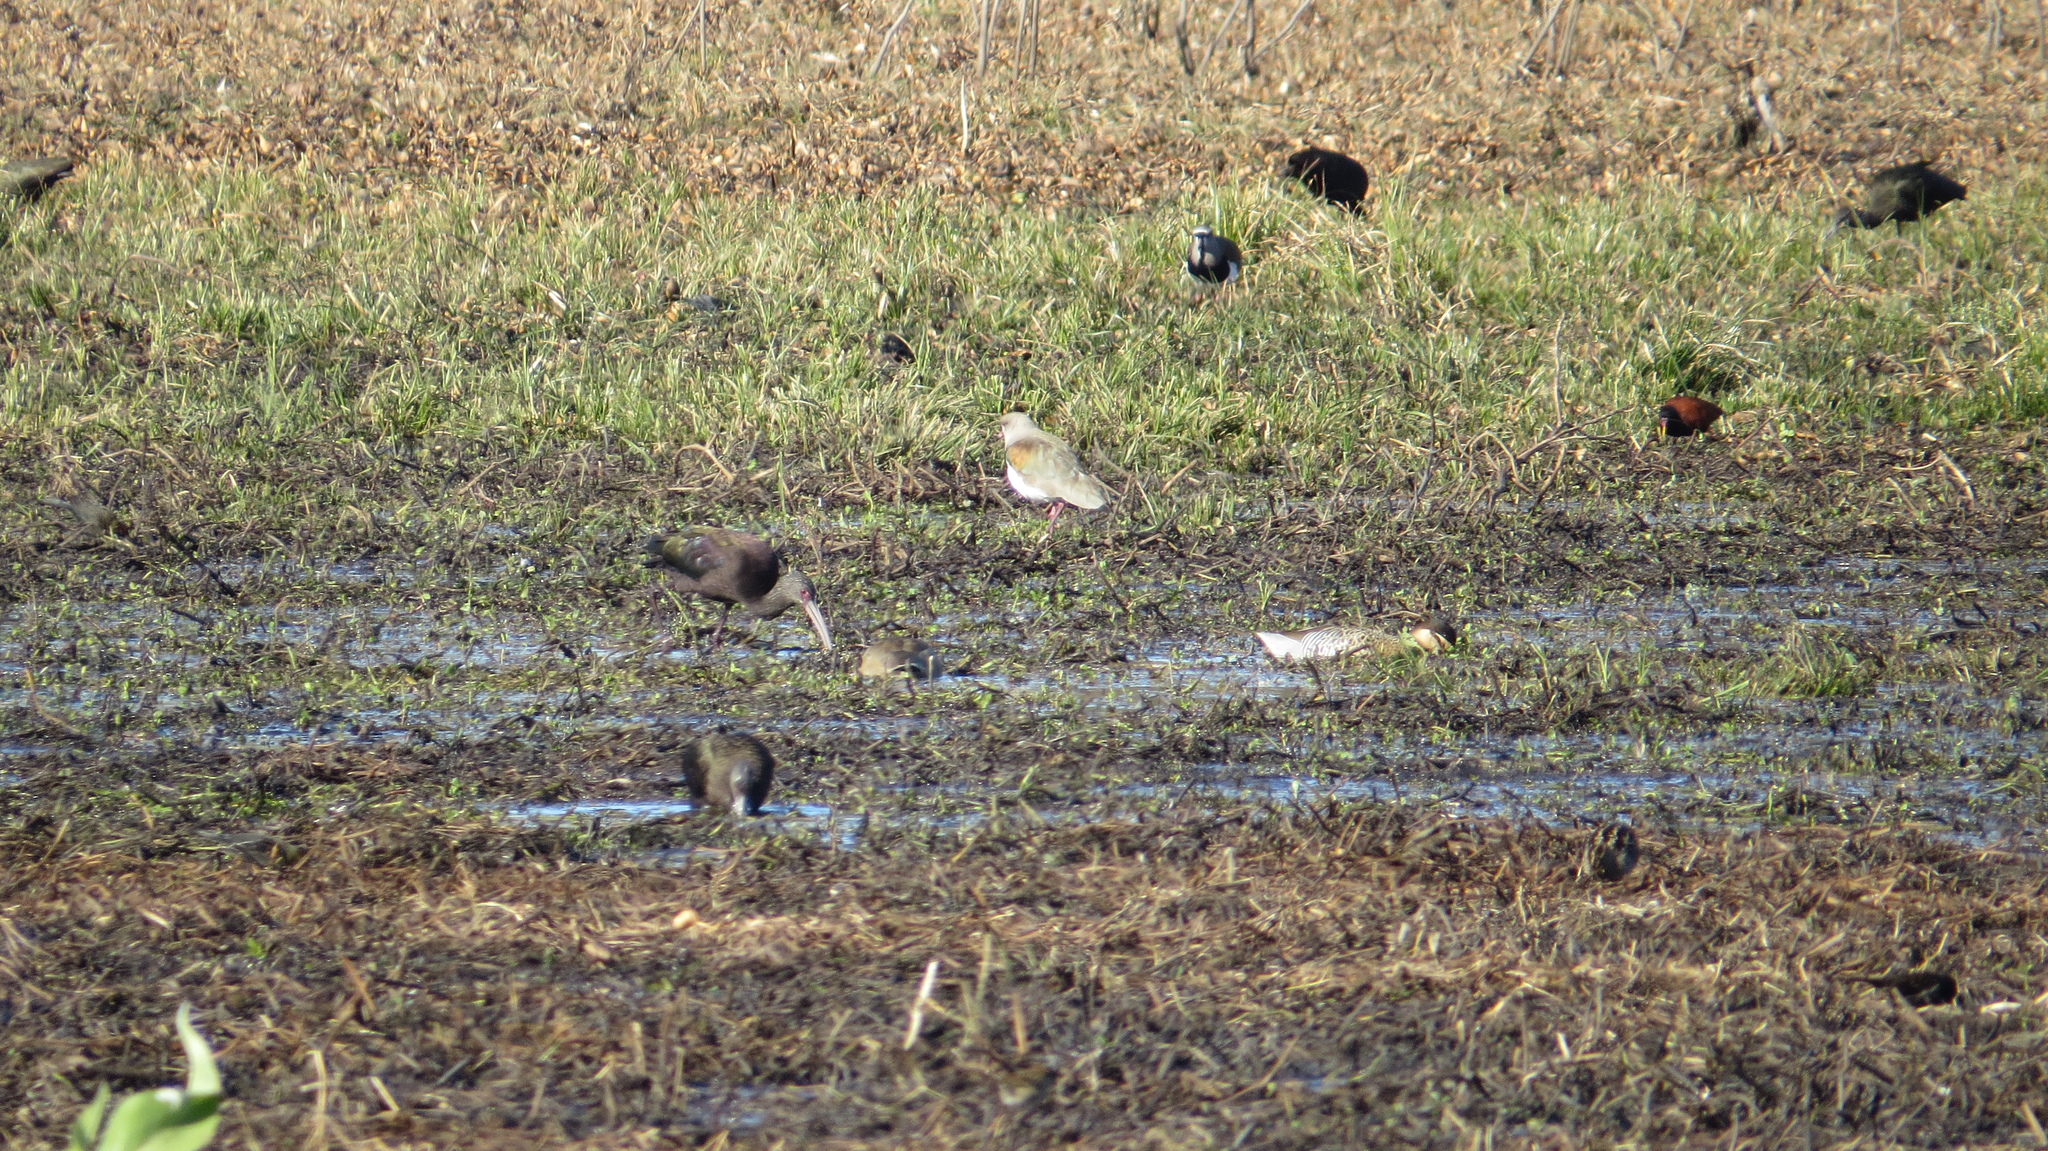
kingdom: Animalia
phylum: Chordata
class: Aves
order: Charadriiformes
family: Charadriidae
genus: Vanellus
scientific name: Vanellus chilensis
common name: Southern lapwing
